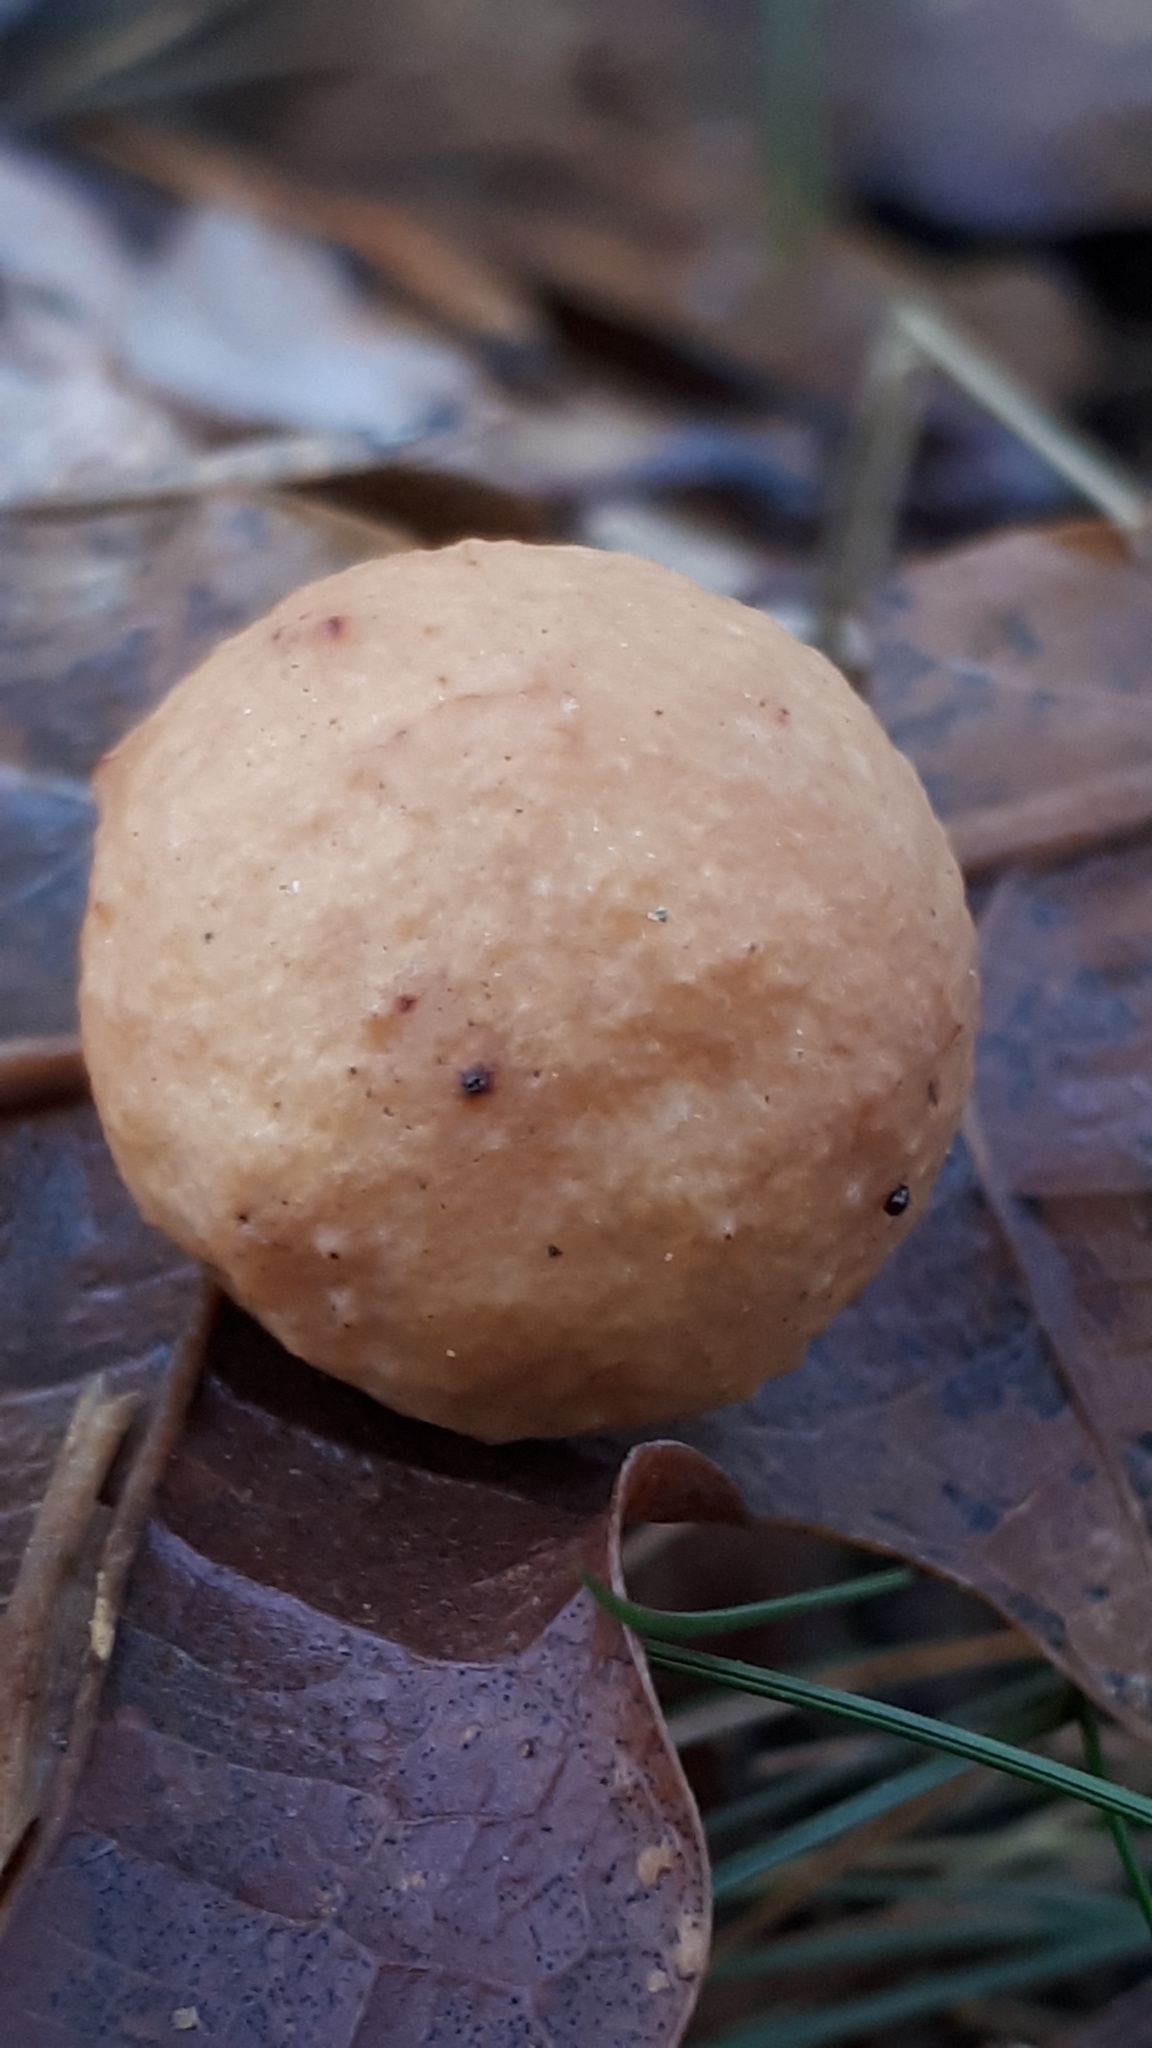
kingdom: Animalia
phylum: Arthropoda
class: Insecta
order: Hymenoptera
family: Cynipidae
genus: Cynips
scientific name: Cynips quercusfolii
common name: Cherry gall
